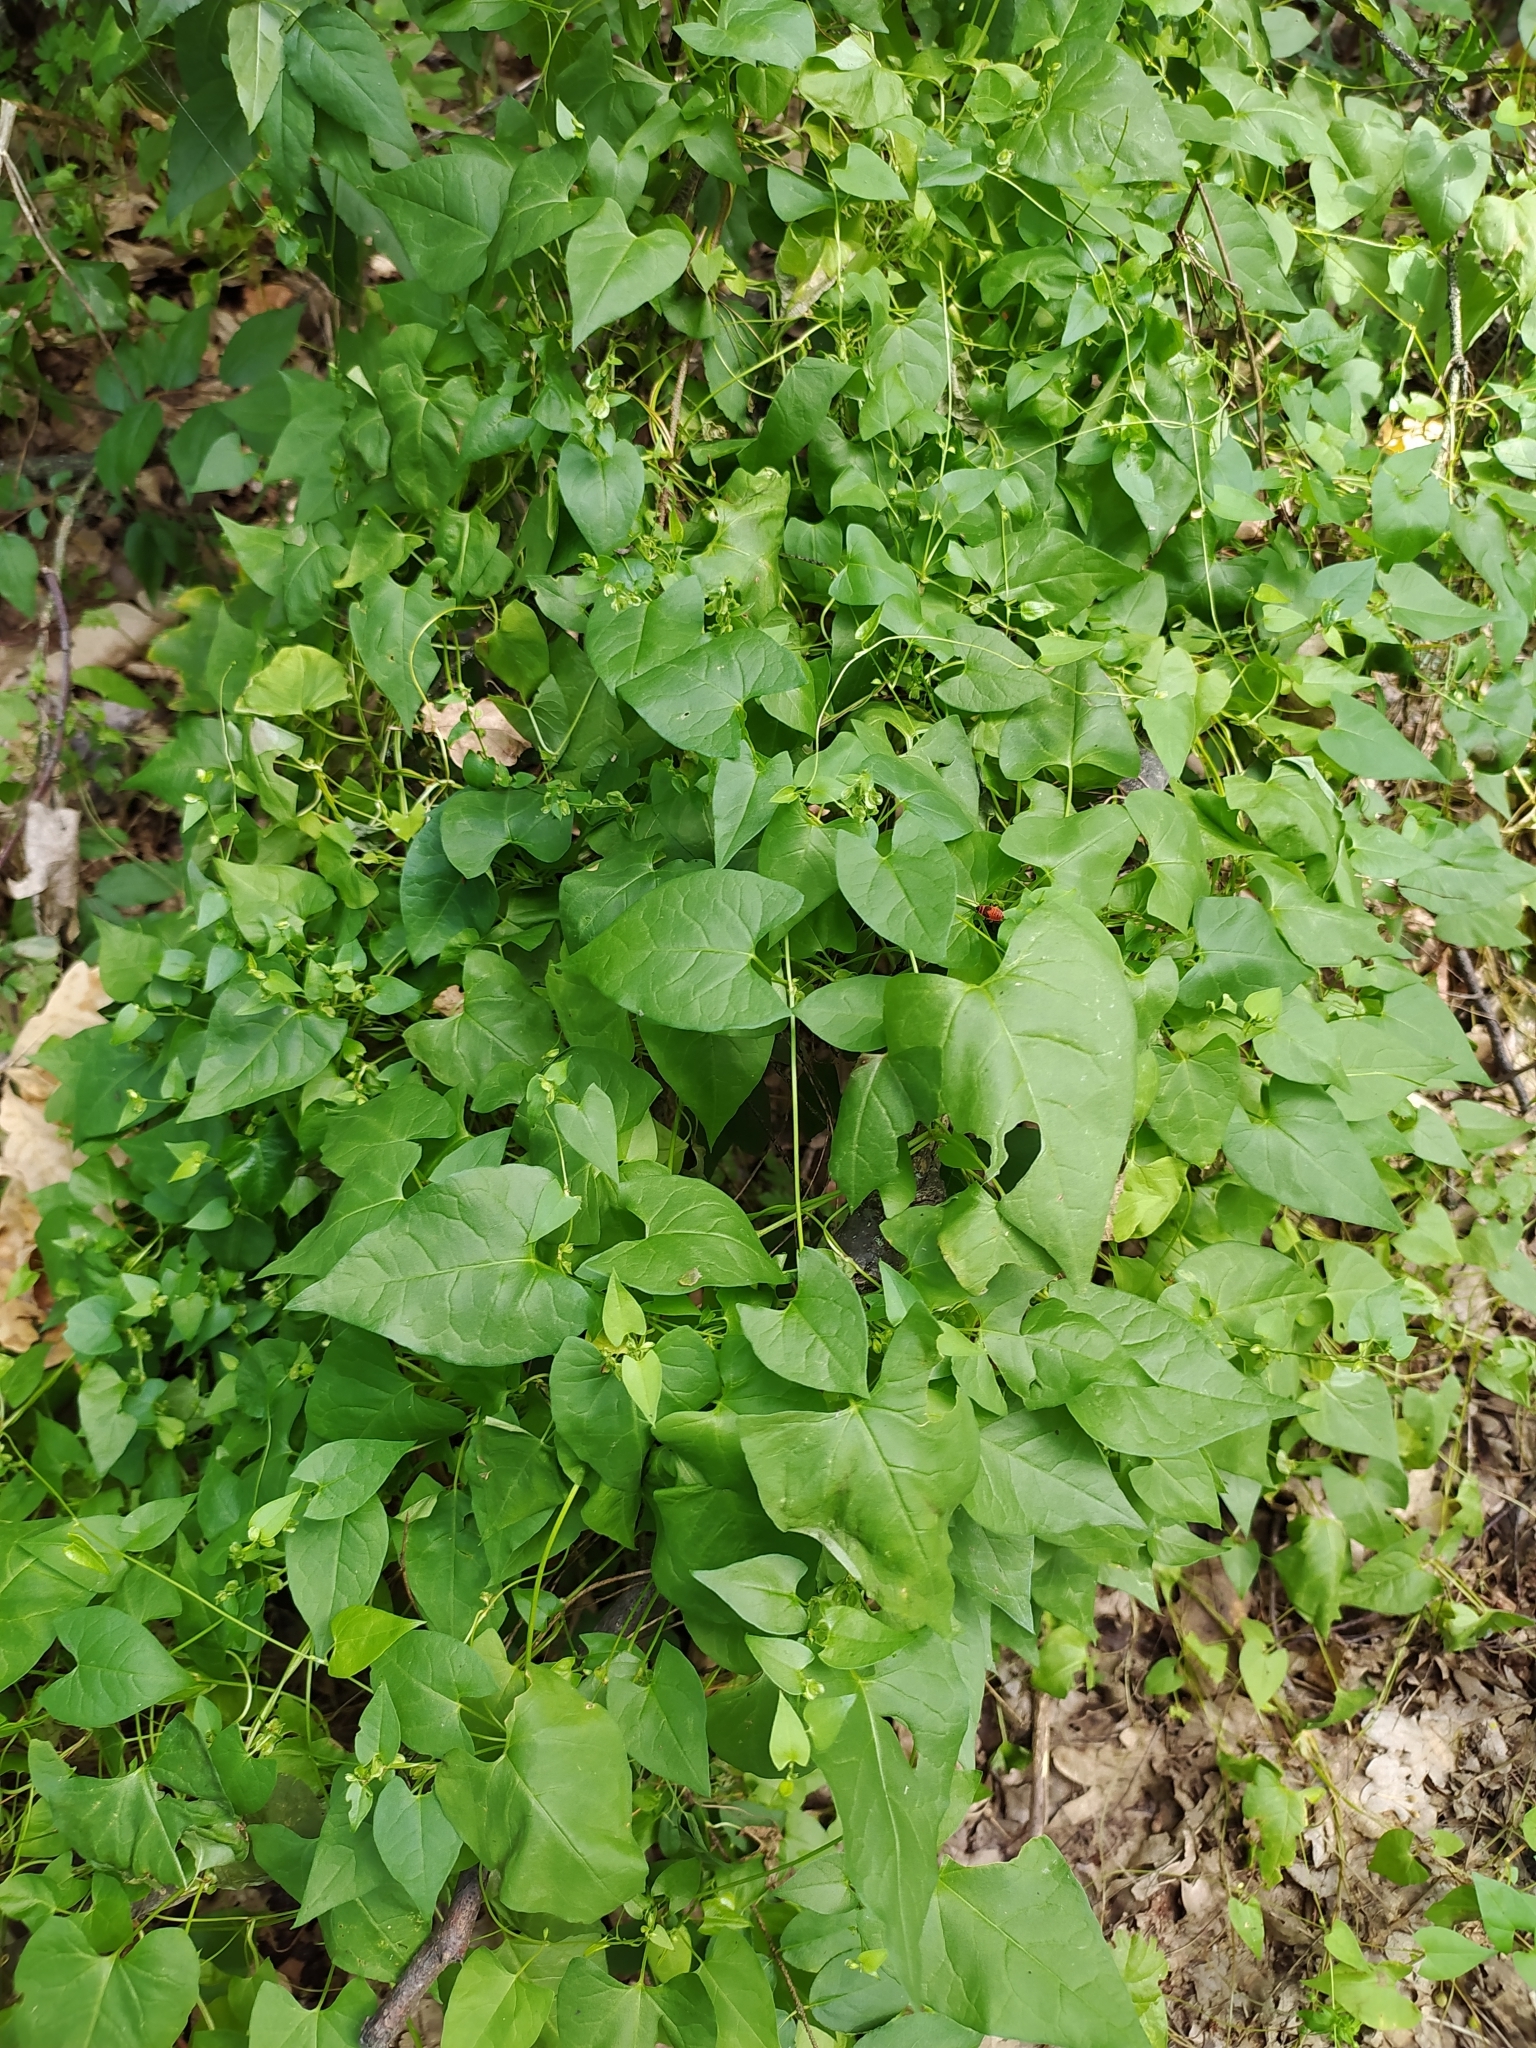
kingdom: Plantae
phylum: Tracheophyta
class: Magnoliopsida
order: Caryophyllales
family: Polygonaceae
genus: Fallopia
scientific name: Fallopia dumetorum
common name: Copse-bindweed
